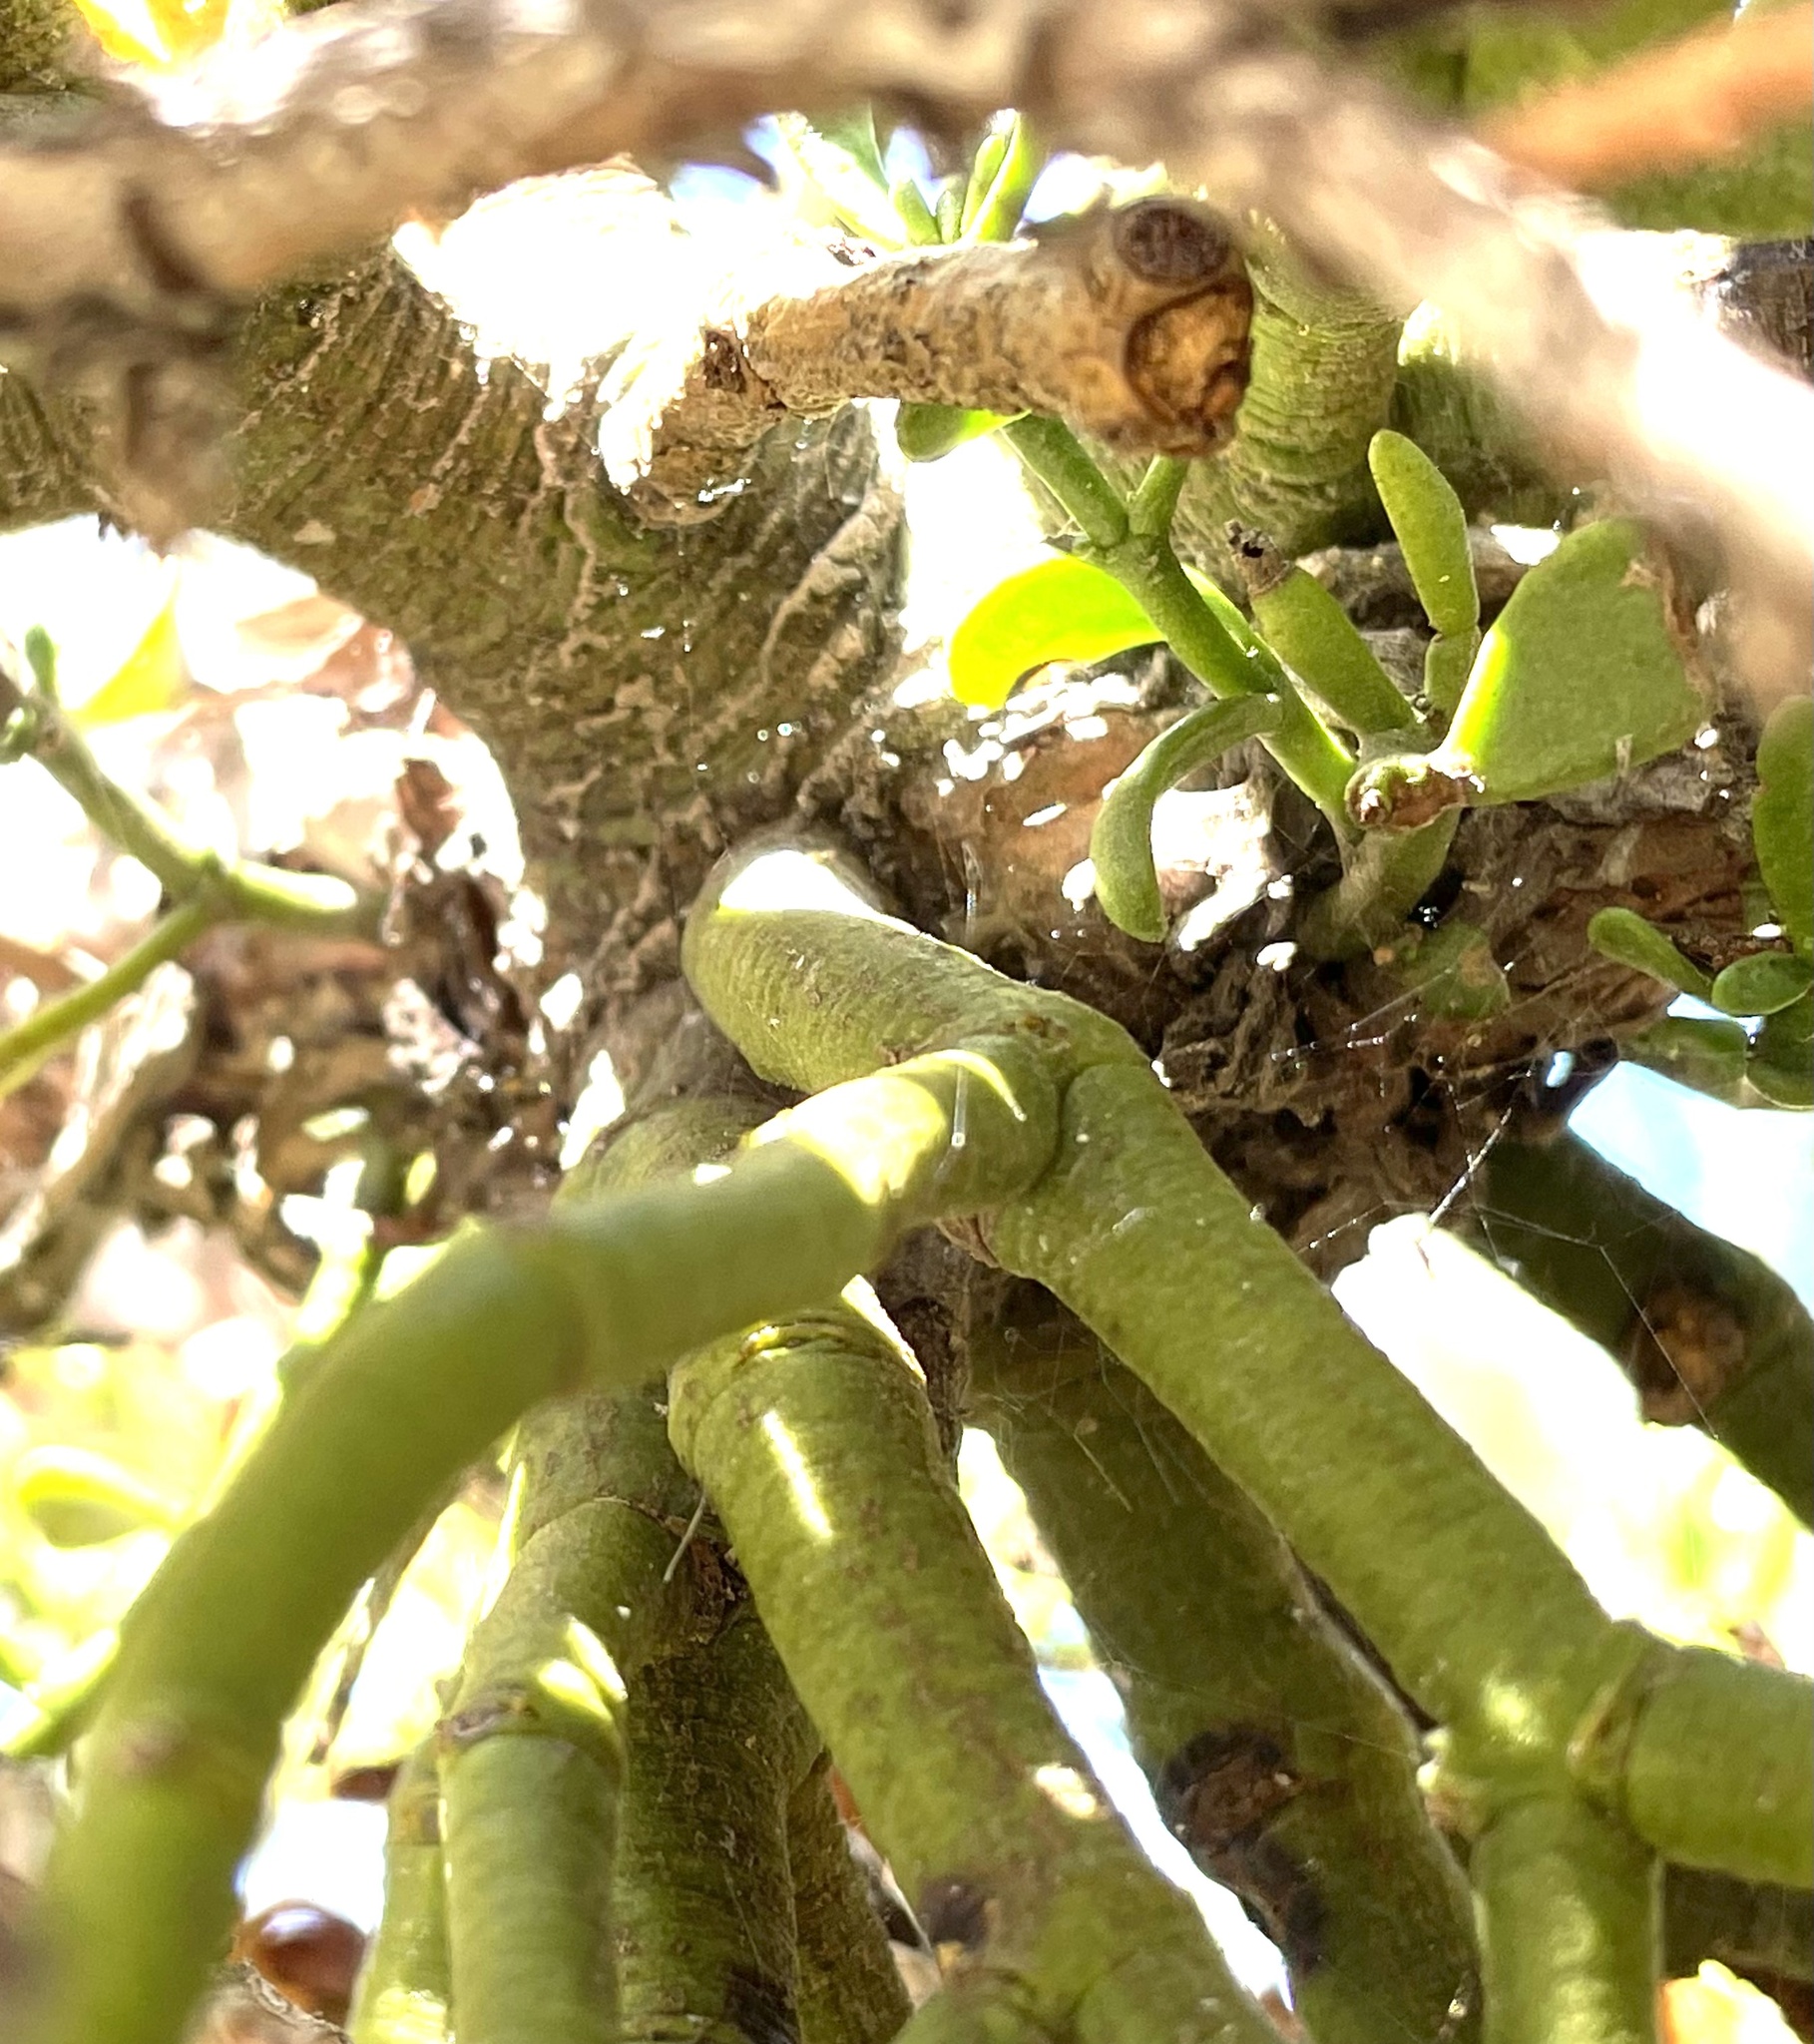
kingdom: Plantae
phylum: Tracheophyta
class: Magnoliopsida
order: Santalales
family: Viscaceae
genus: Phoradendron
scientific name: Phoradendron bolleanum
